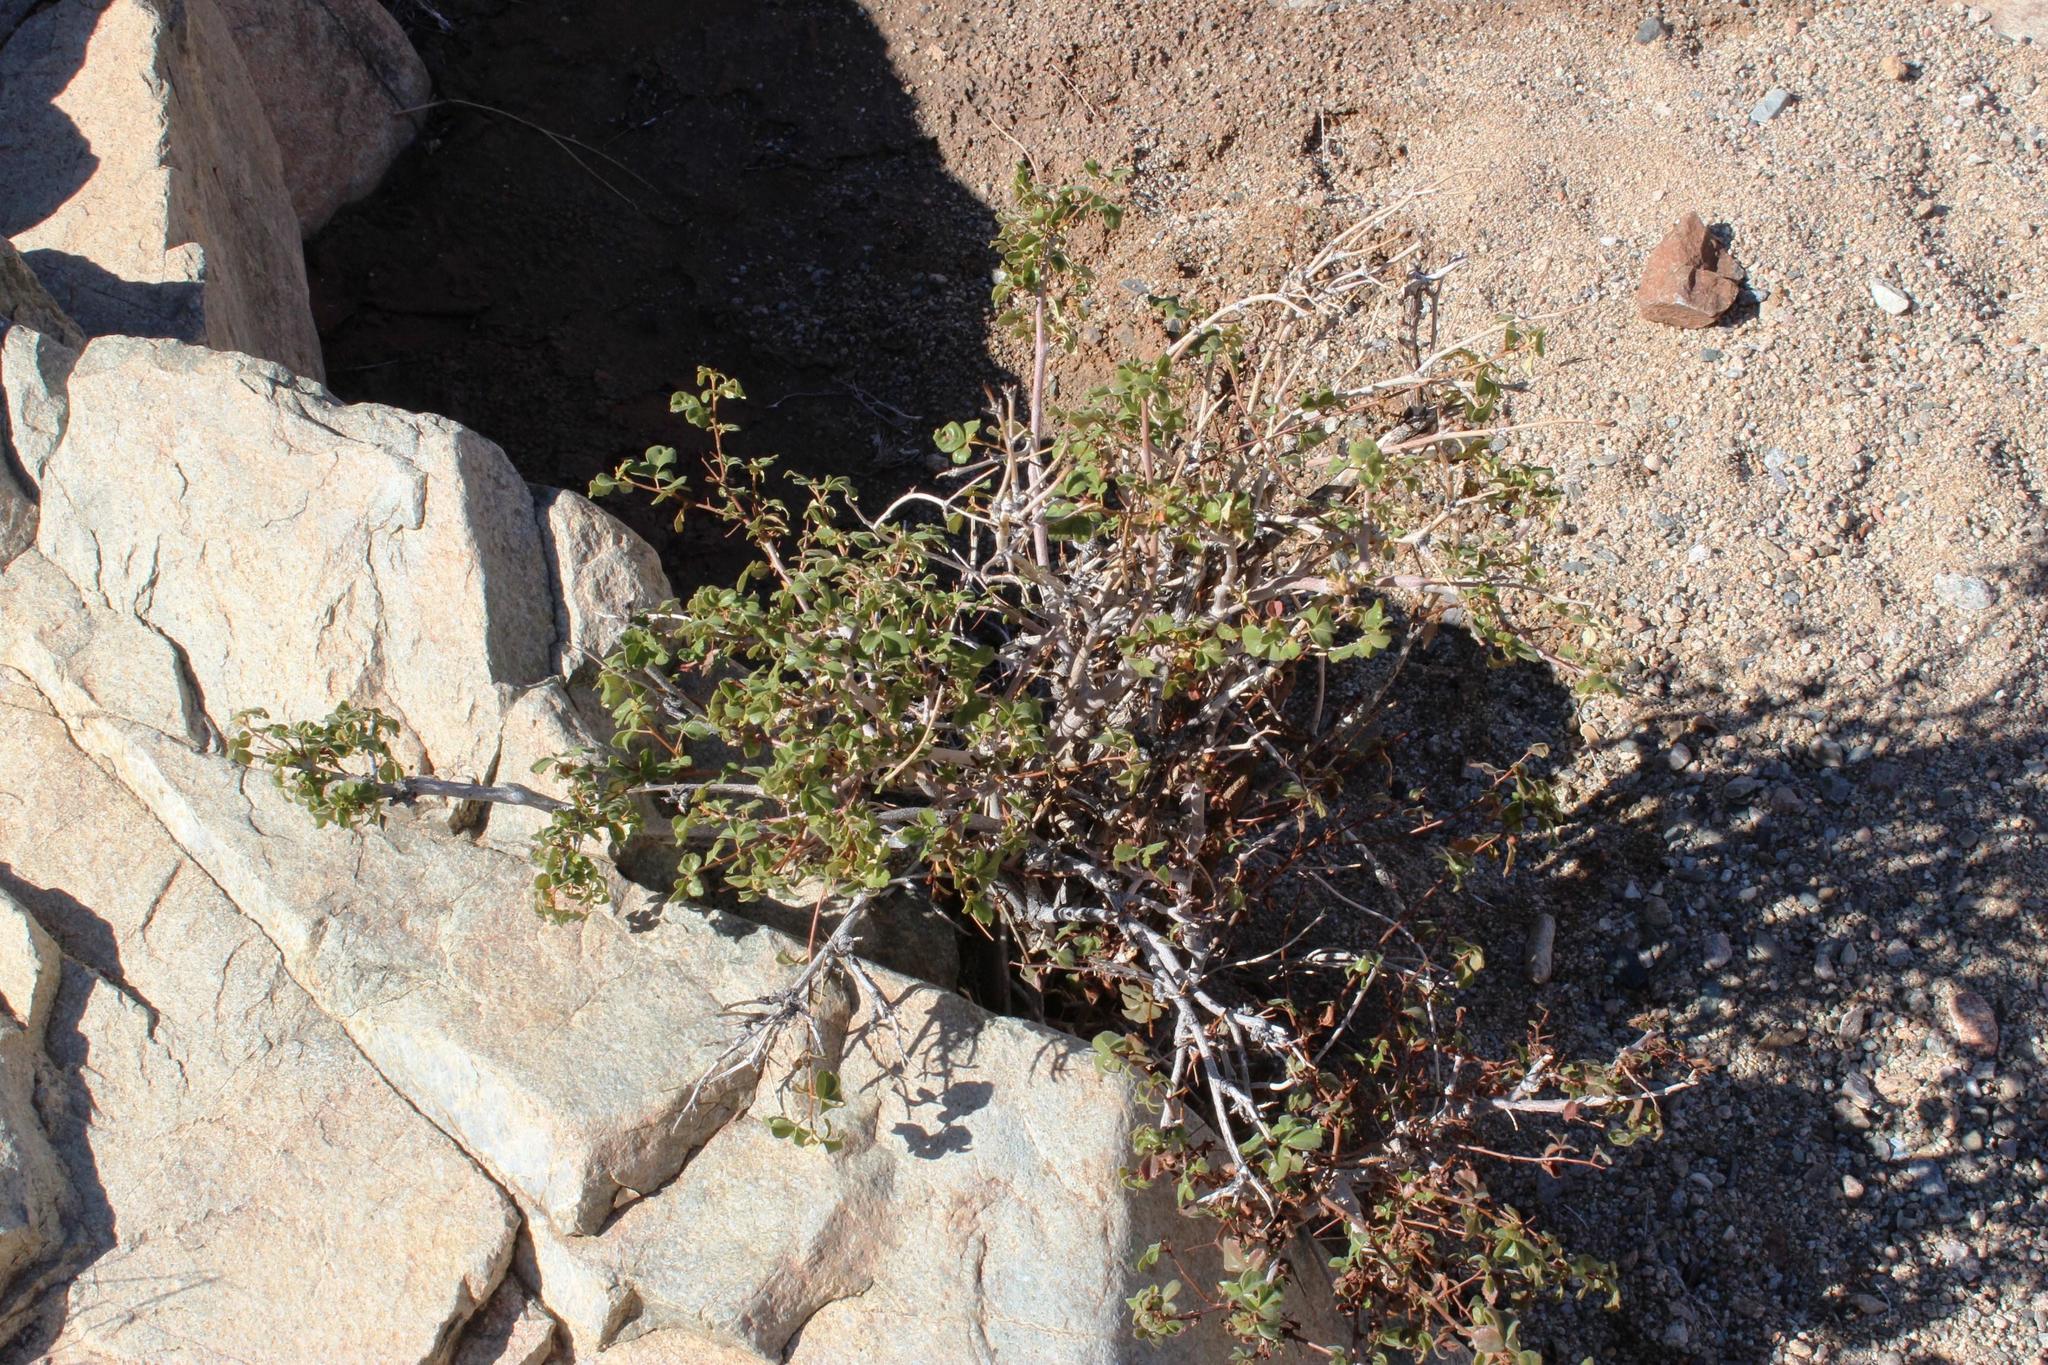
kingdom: Plantae
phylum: Tracheophyta
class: Magnoliopsida
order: Sapindales
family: Burseraceae
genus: Commiphora
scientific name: Commiphora capensis
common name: Namaqua commiphora
